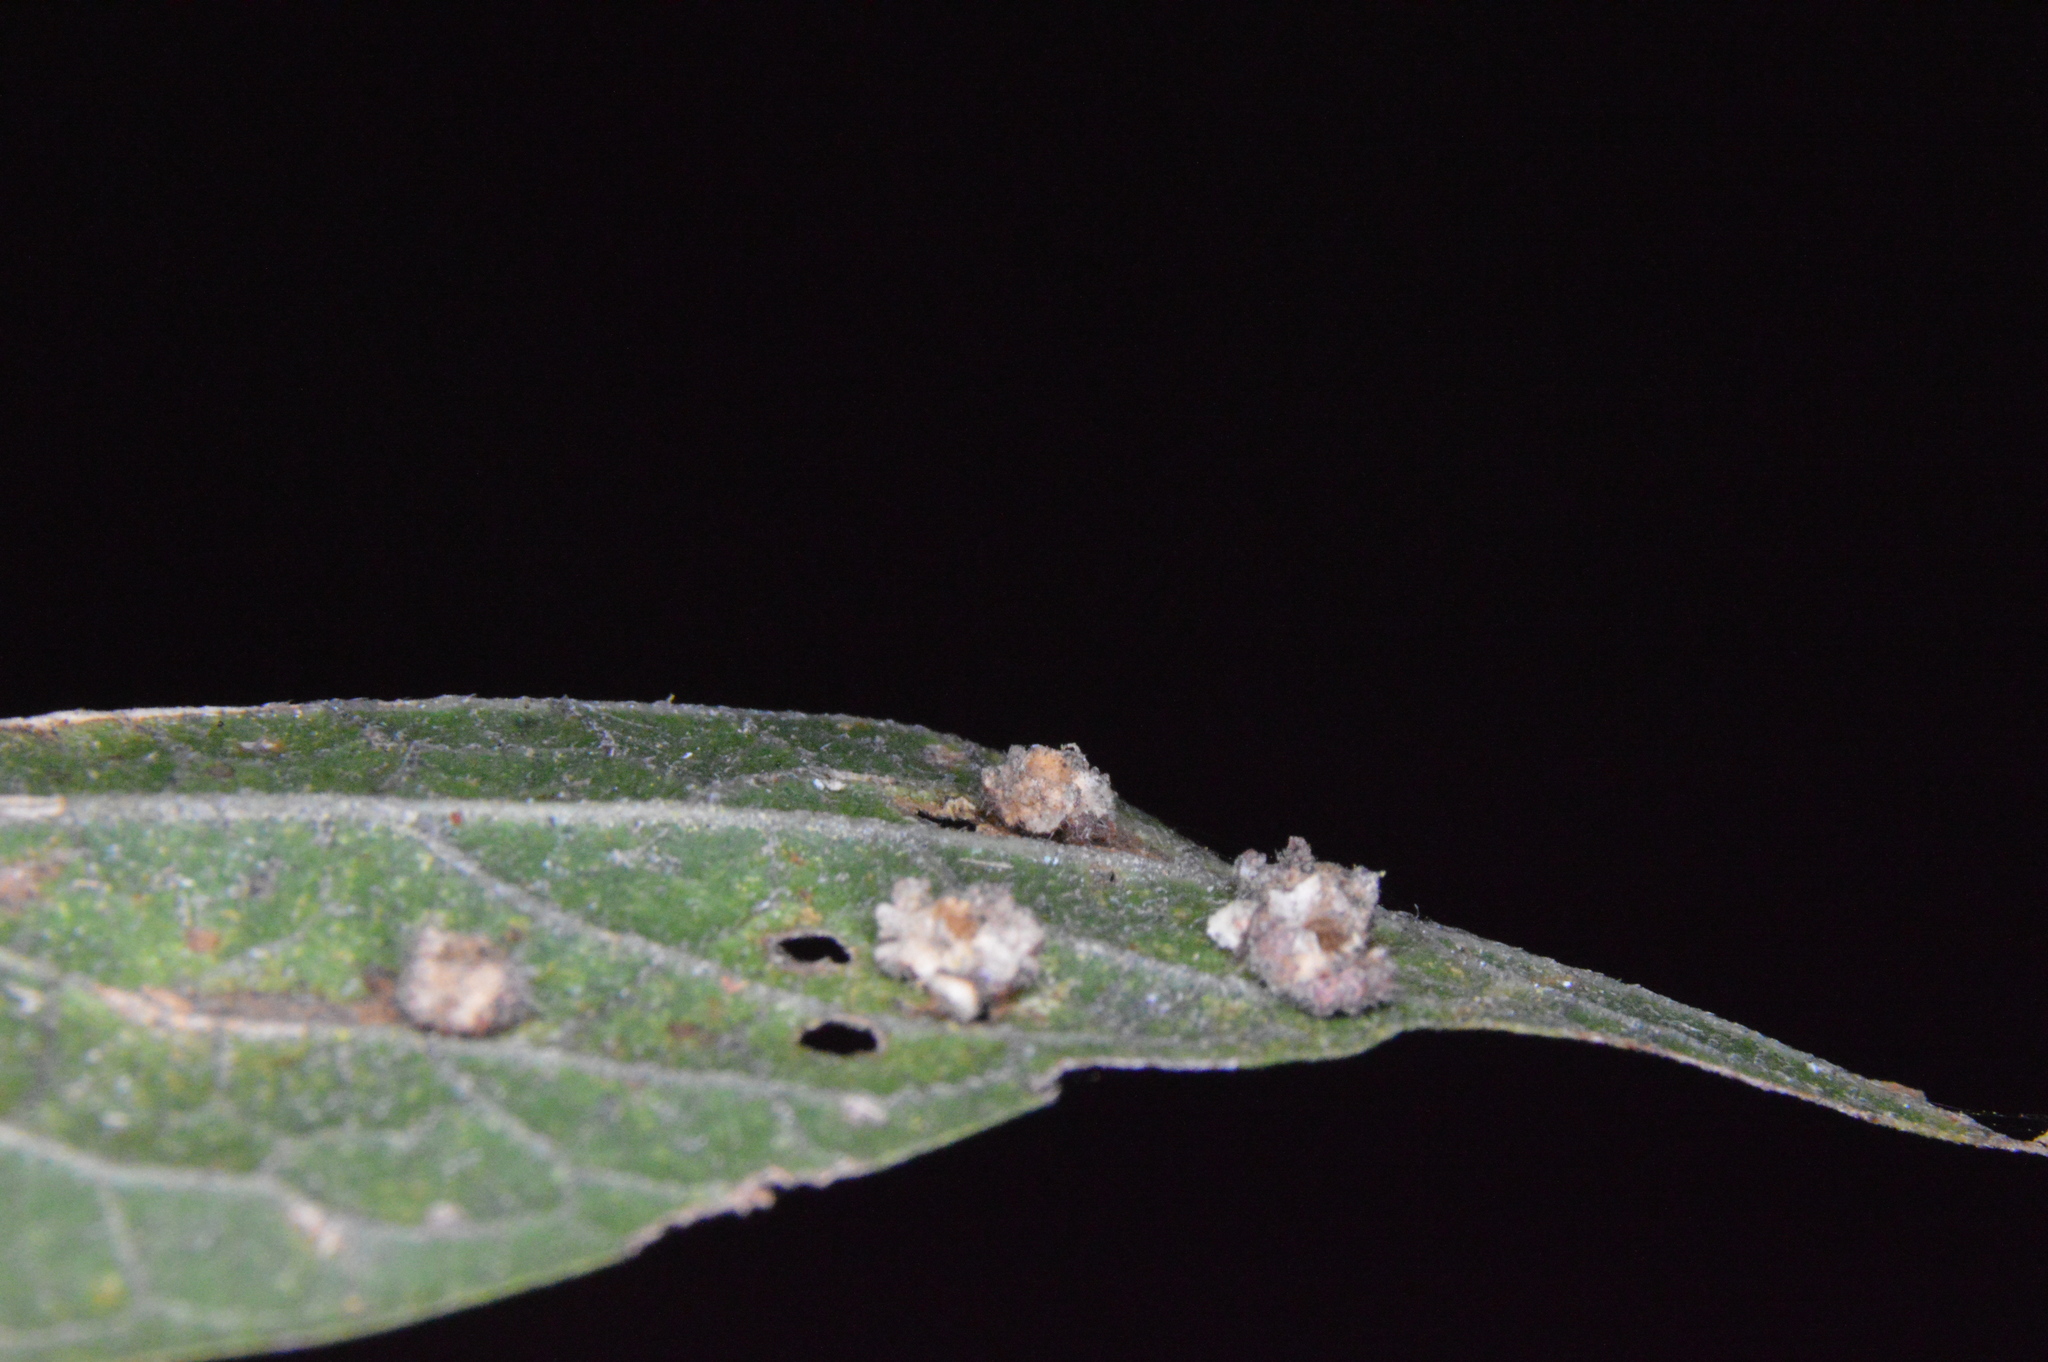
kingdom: Animalia
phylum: Arthropoda
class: Insecta
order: Diptera
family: Cecidomyiidae
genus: Celticecis
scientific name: Celticecis capsularis
